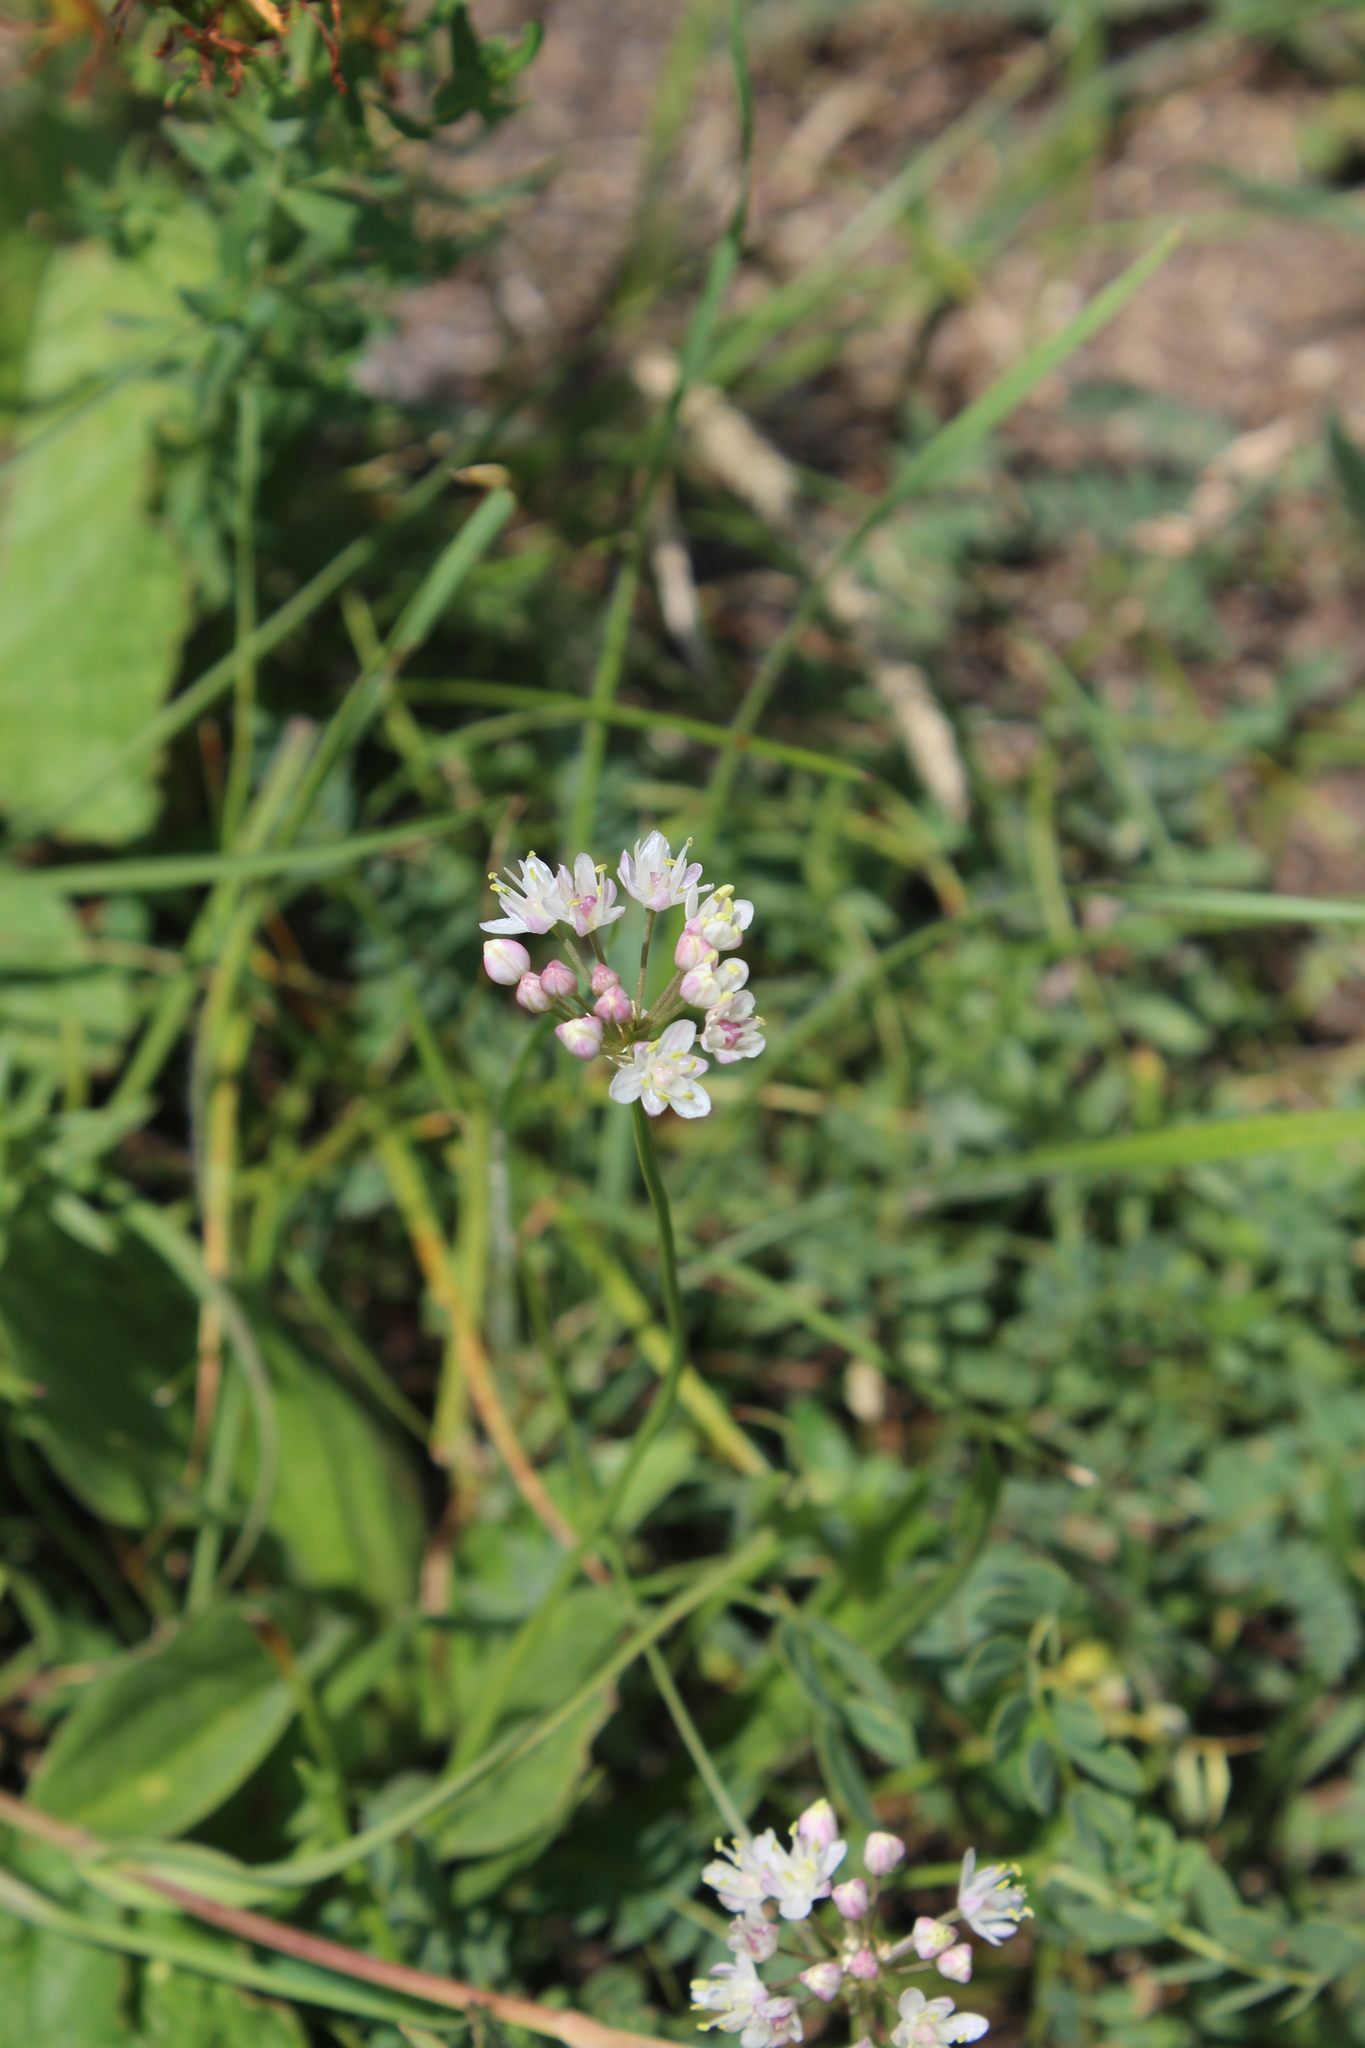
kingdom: Plantae
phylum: Tracheophyta
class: Liliopsida
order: Asparagales
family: Amaryllidaceae
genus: Allium
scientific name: Allium denudatum
